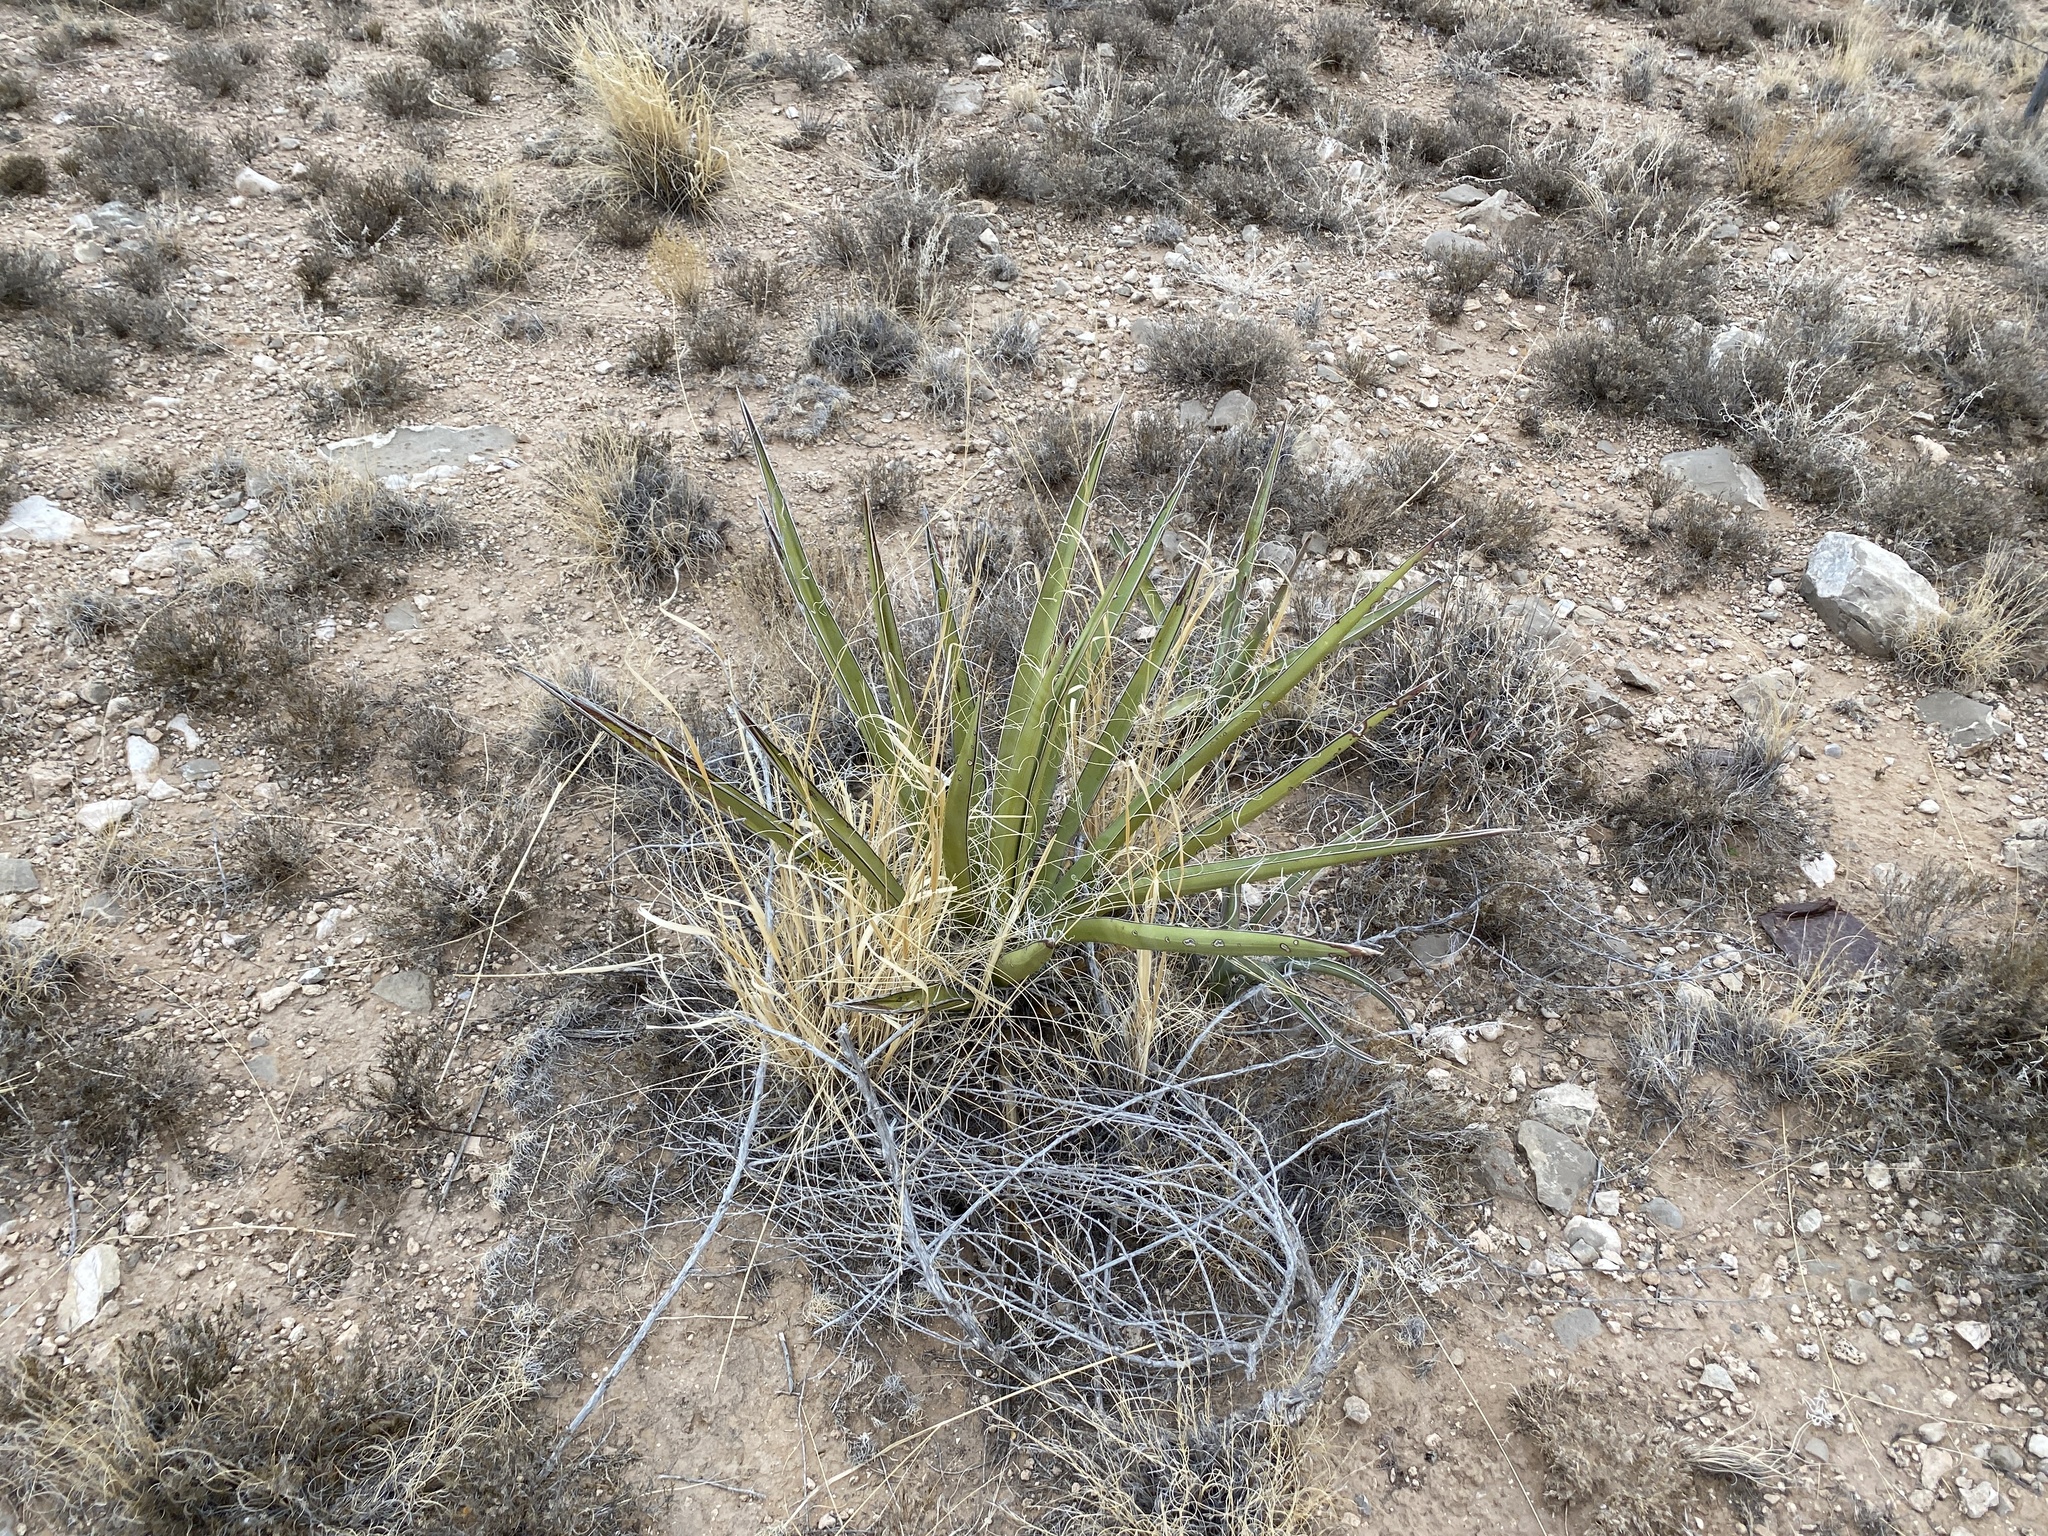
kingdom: Plantae
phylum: Tracheophyta
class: Liliopsida
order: Asparagales
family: Asparagaceae
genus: Yucca
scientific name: Yucca baccata
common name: Banana yucca
